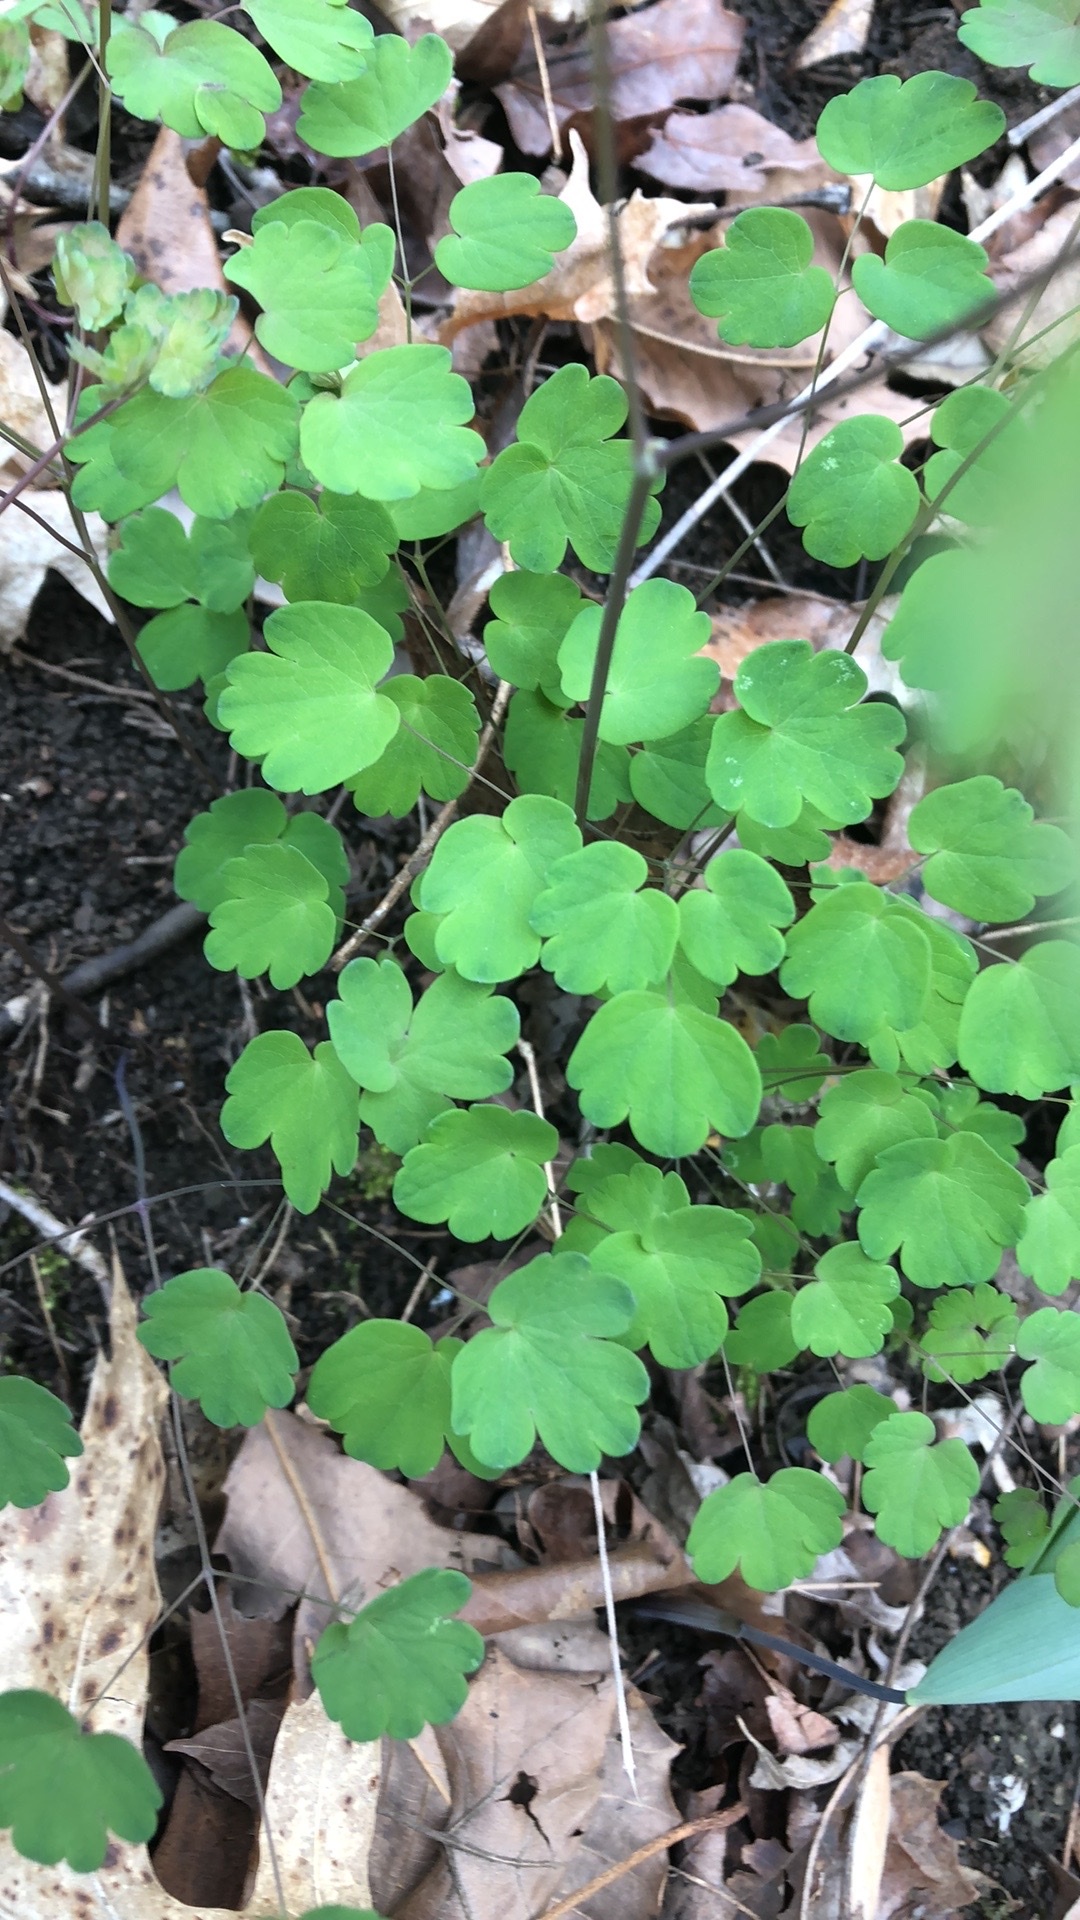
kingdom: Plantae
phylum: Tracheophyta
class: Magnoliopsida
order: Ranunculales
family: Ranunculaceae
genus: Thalictrum
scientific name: Thalictrum dioicum
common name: Early meadow-rue
